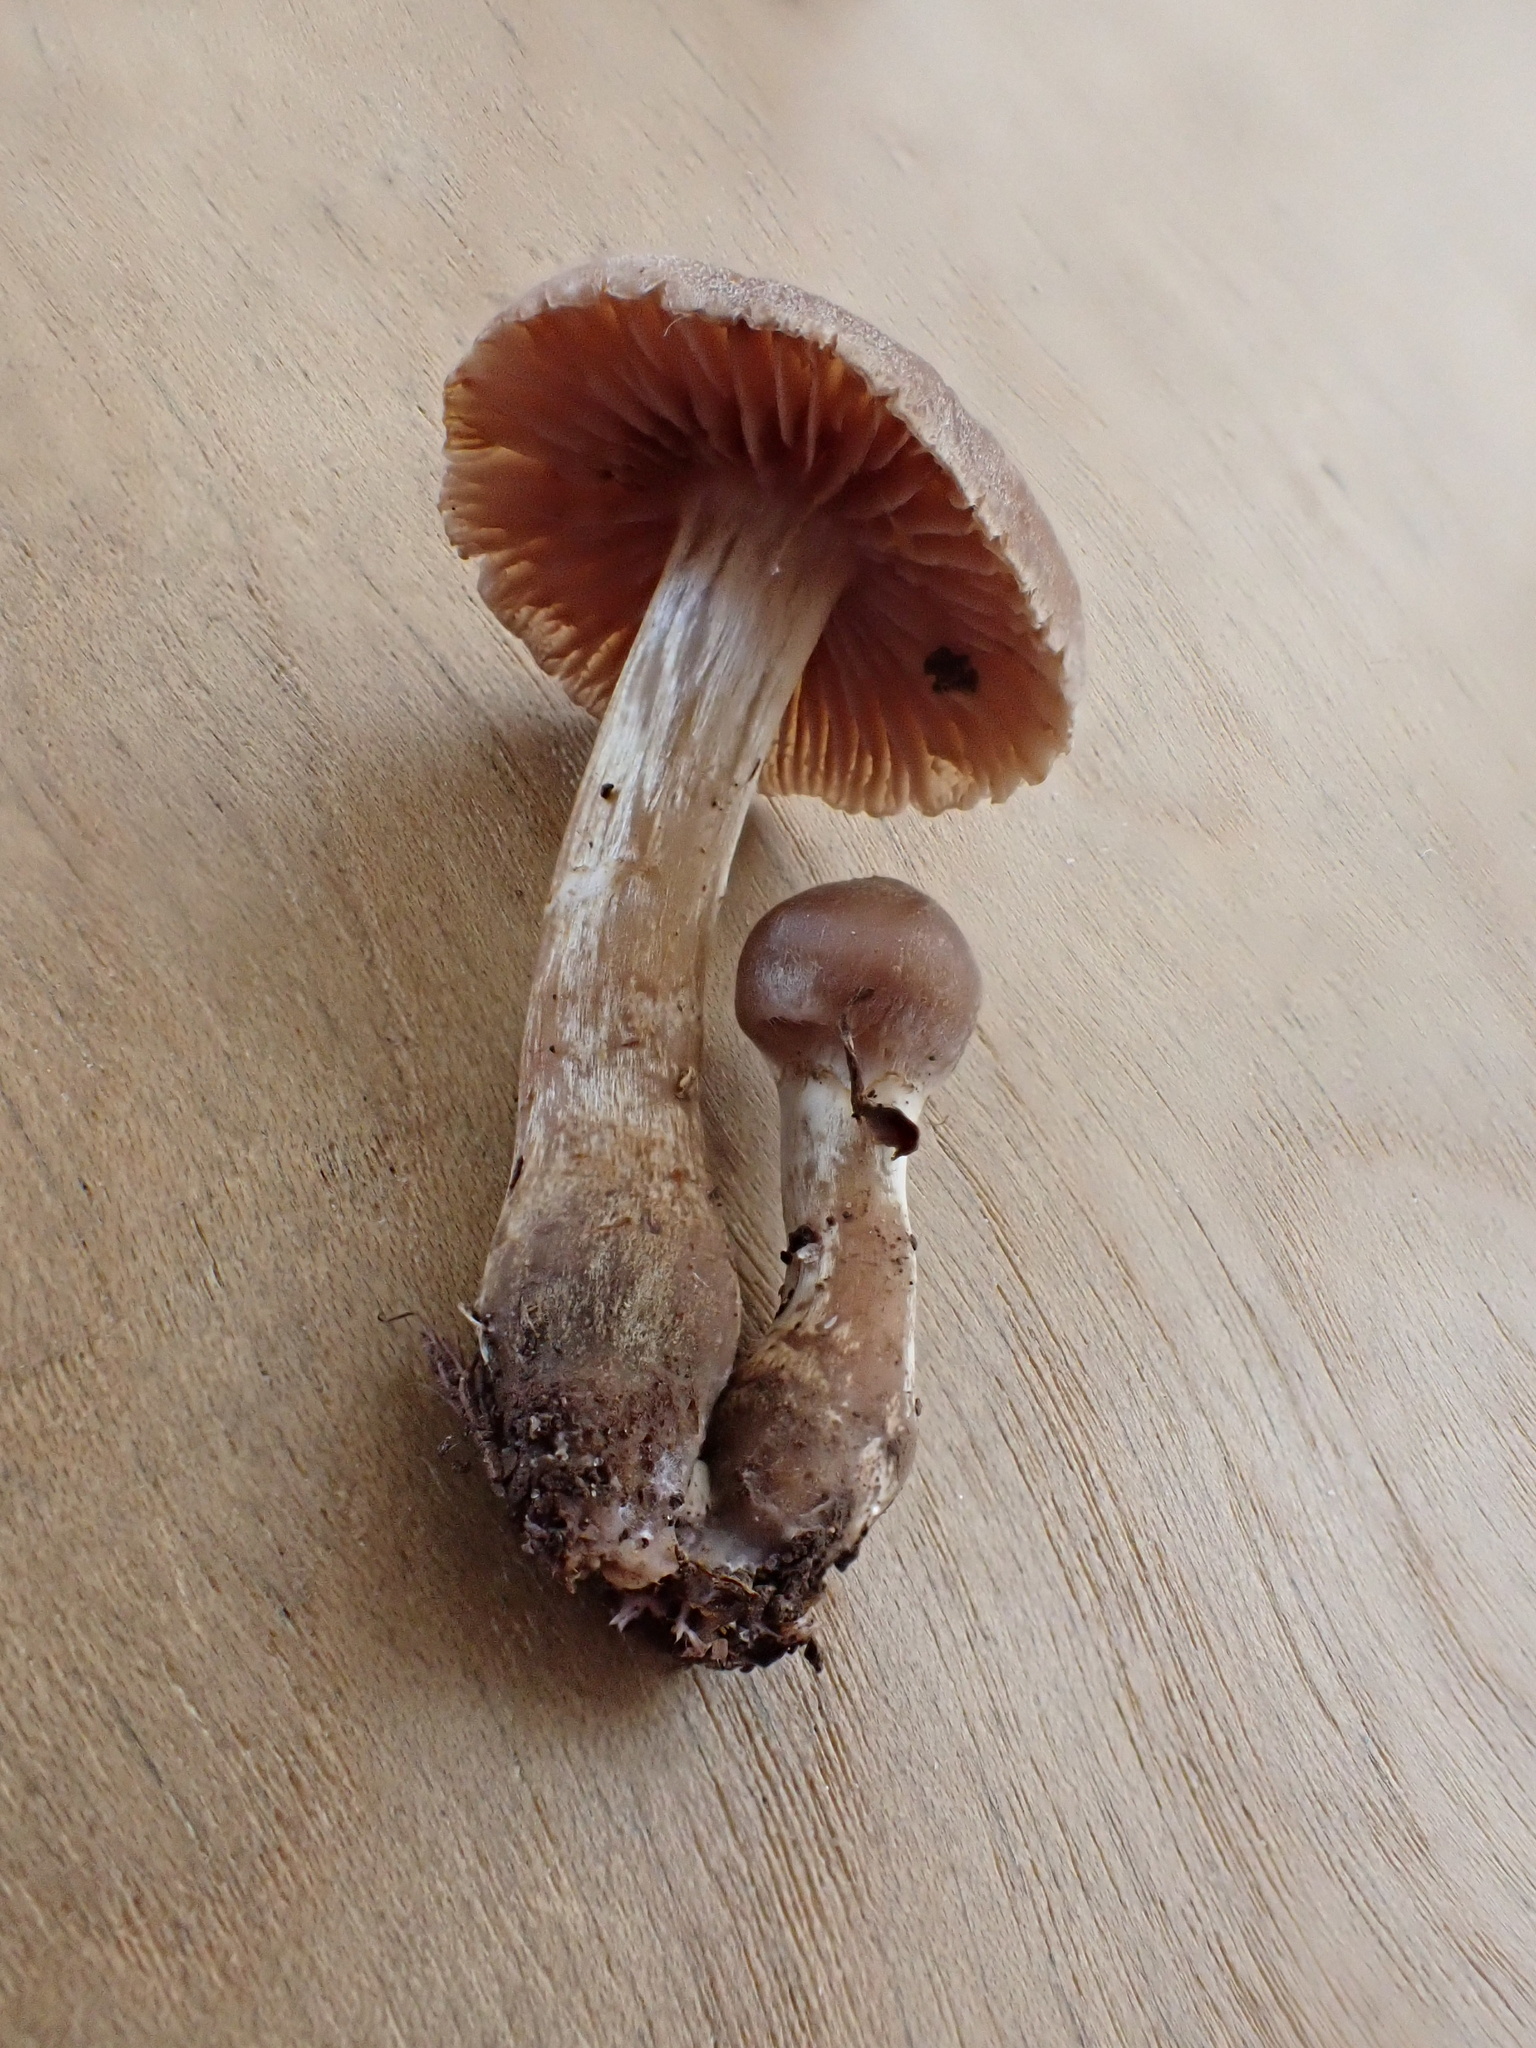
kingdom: Fungi
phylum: Basidiomycota
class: Agaricomycetes
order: Agaricales
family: Omphalotaceae
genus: Collybiopsis
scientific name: Collybiopsis luxurians
